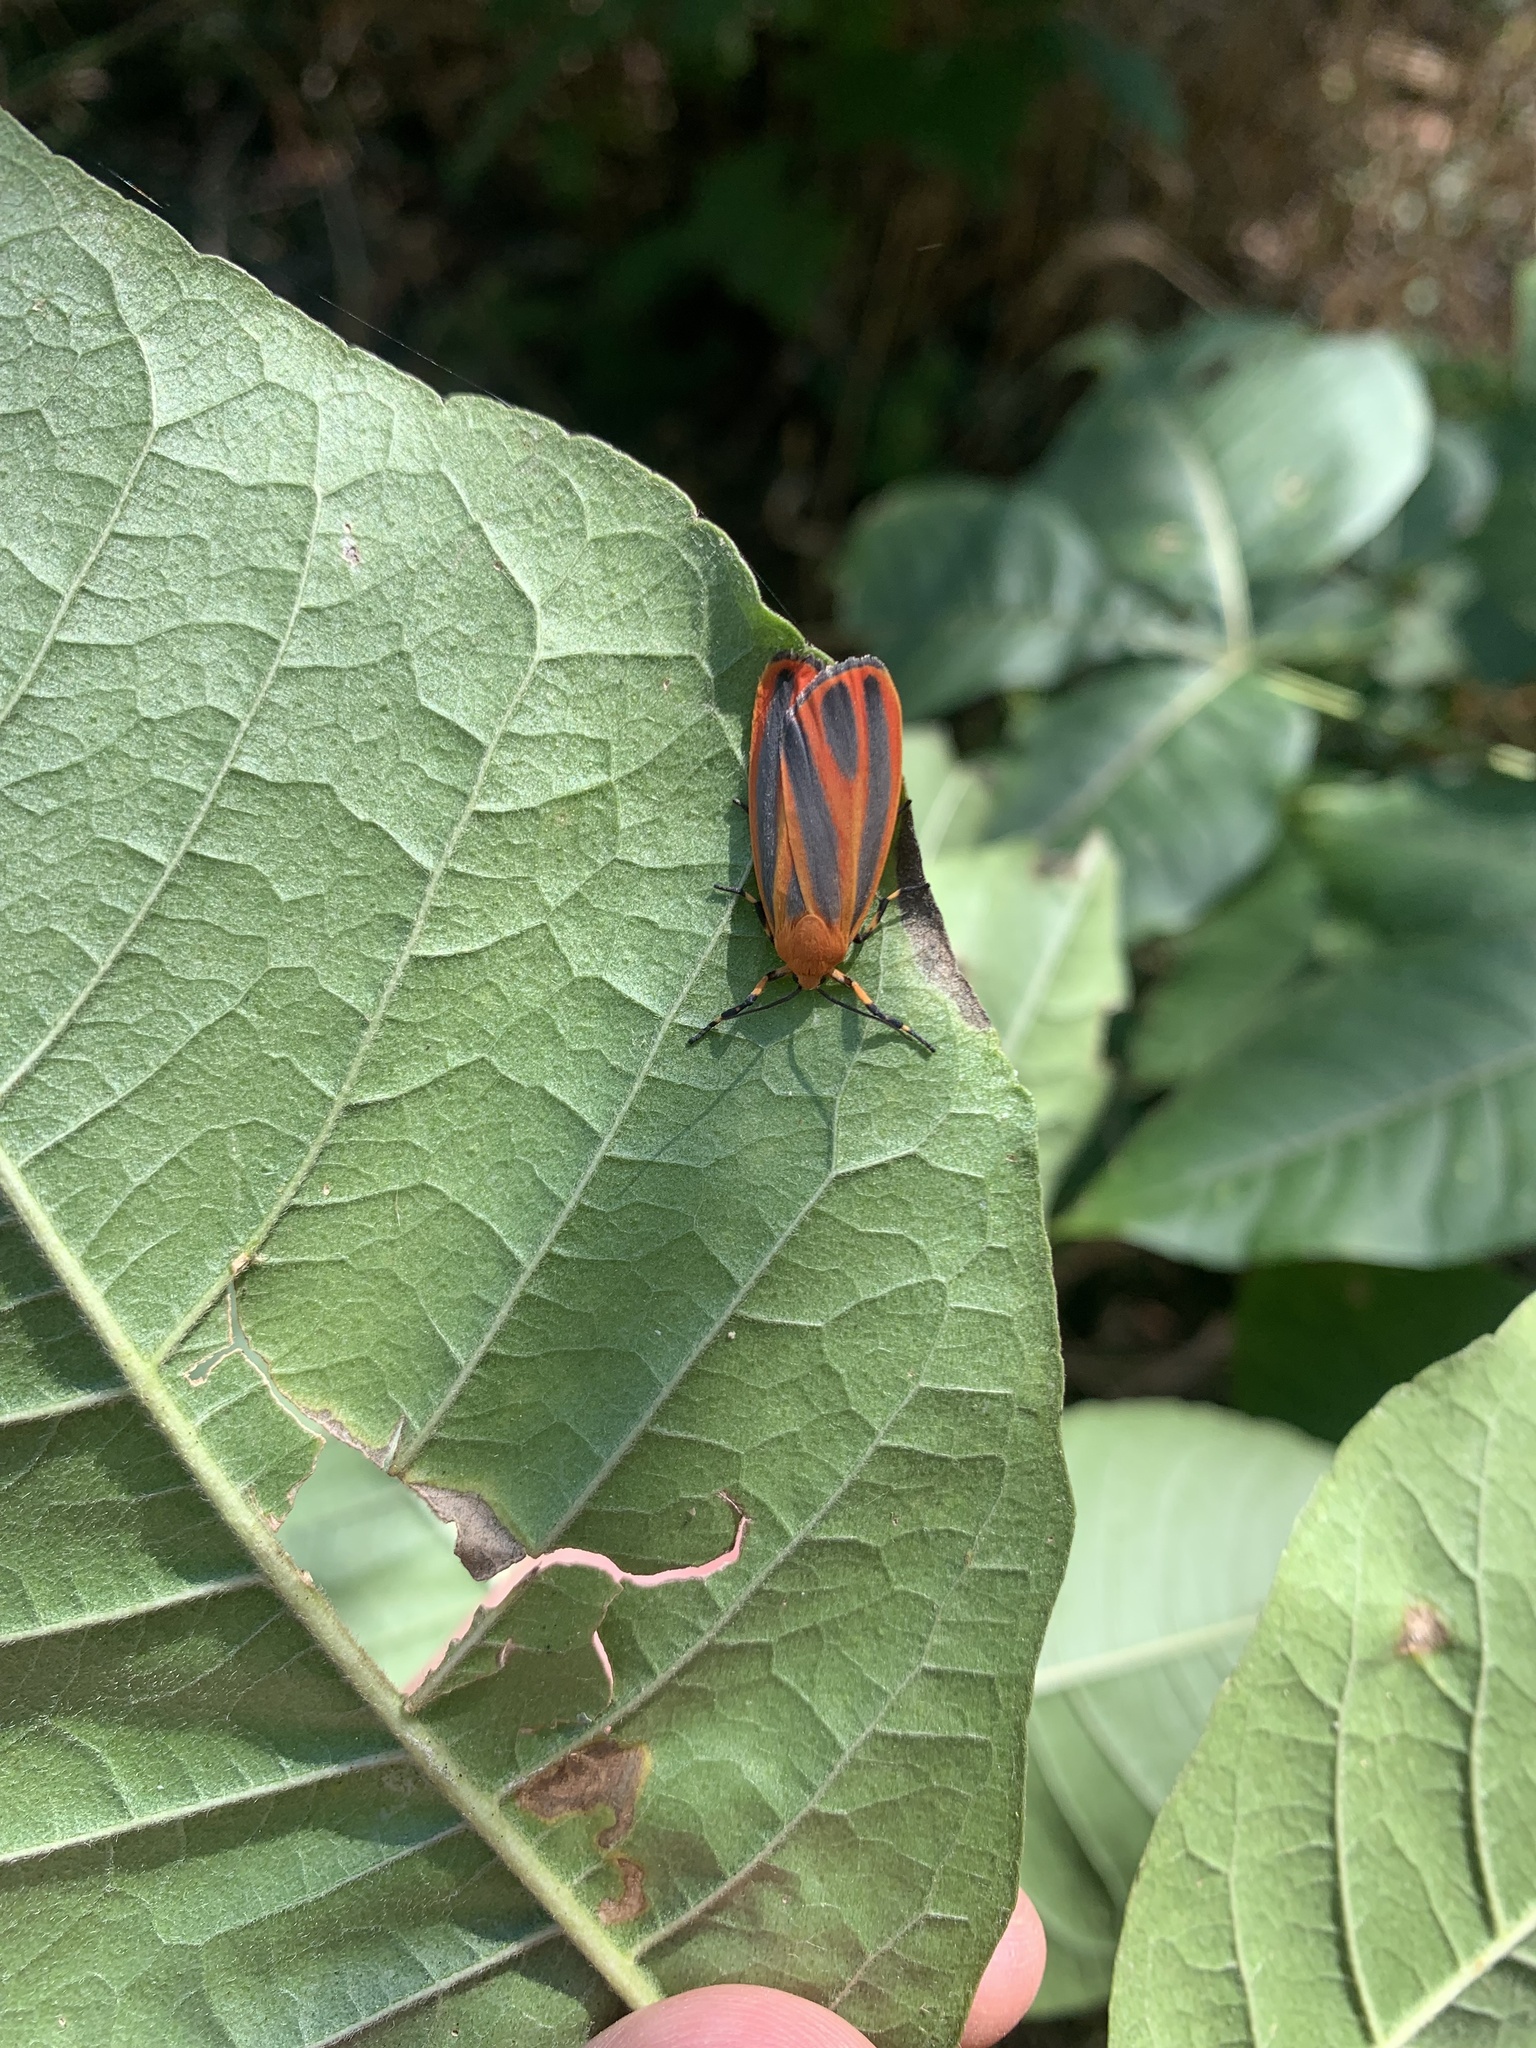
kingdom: Animalia
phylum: Arthropoda
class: Insecta
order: Lepidoptera
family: Erebidae
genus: Hypoprepia
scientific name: Hypoprepia miniata
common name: Scarlet-winged lichen moth
